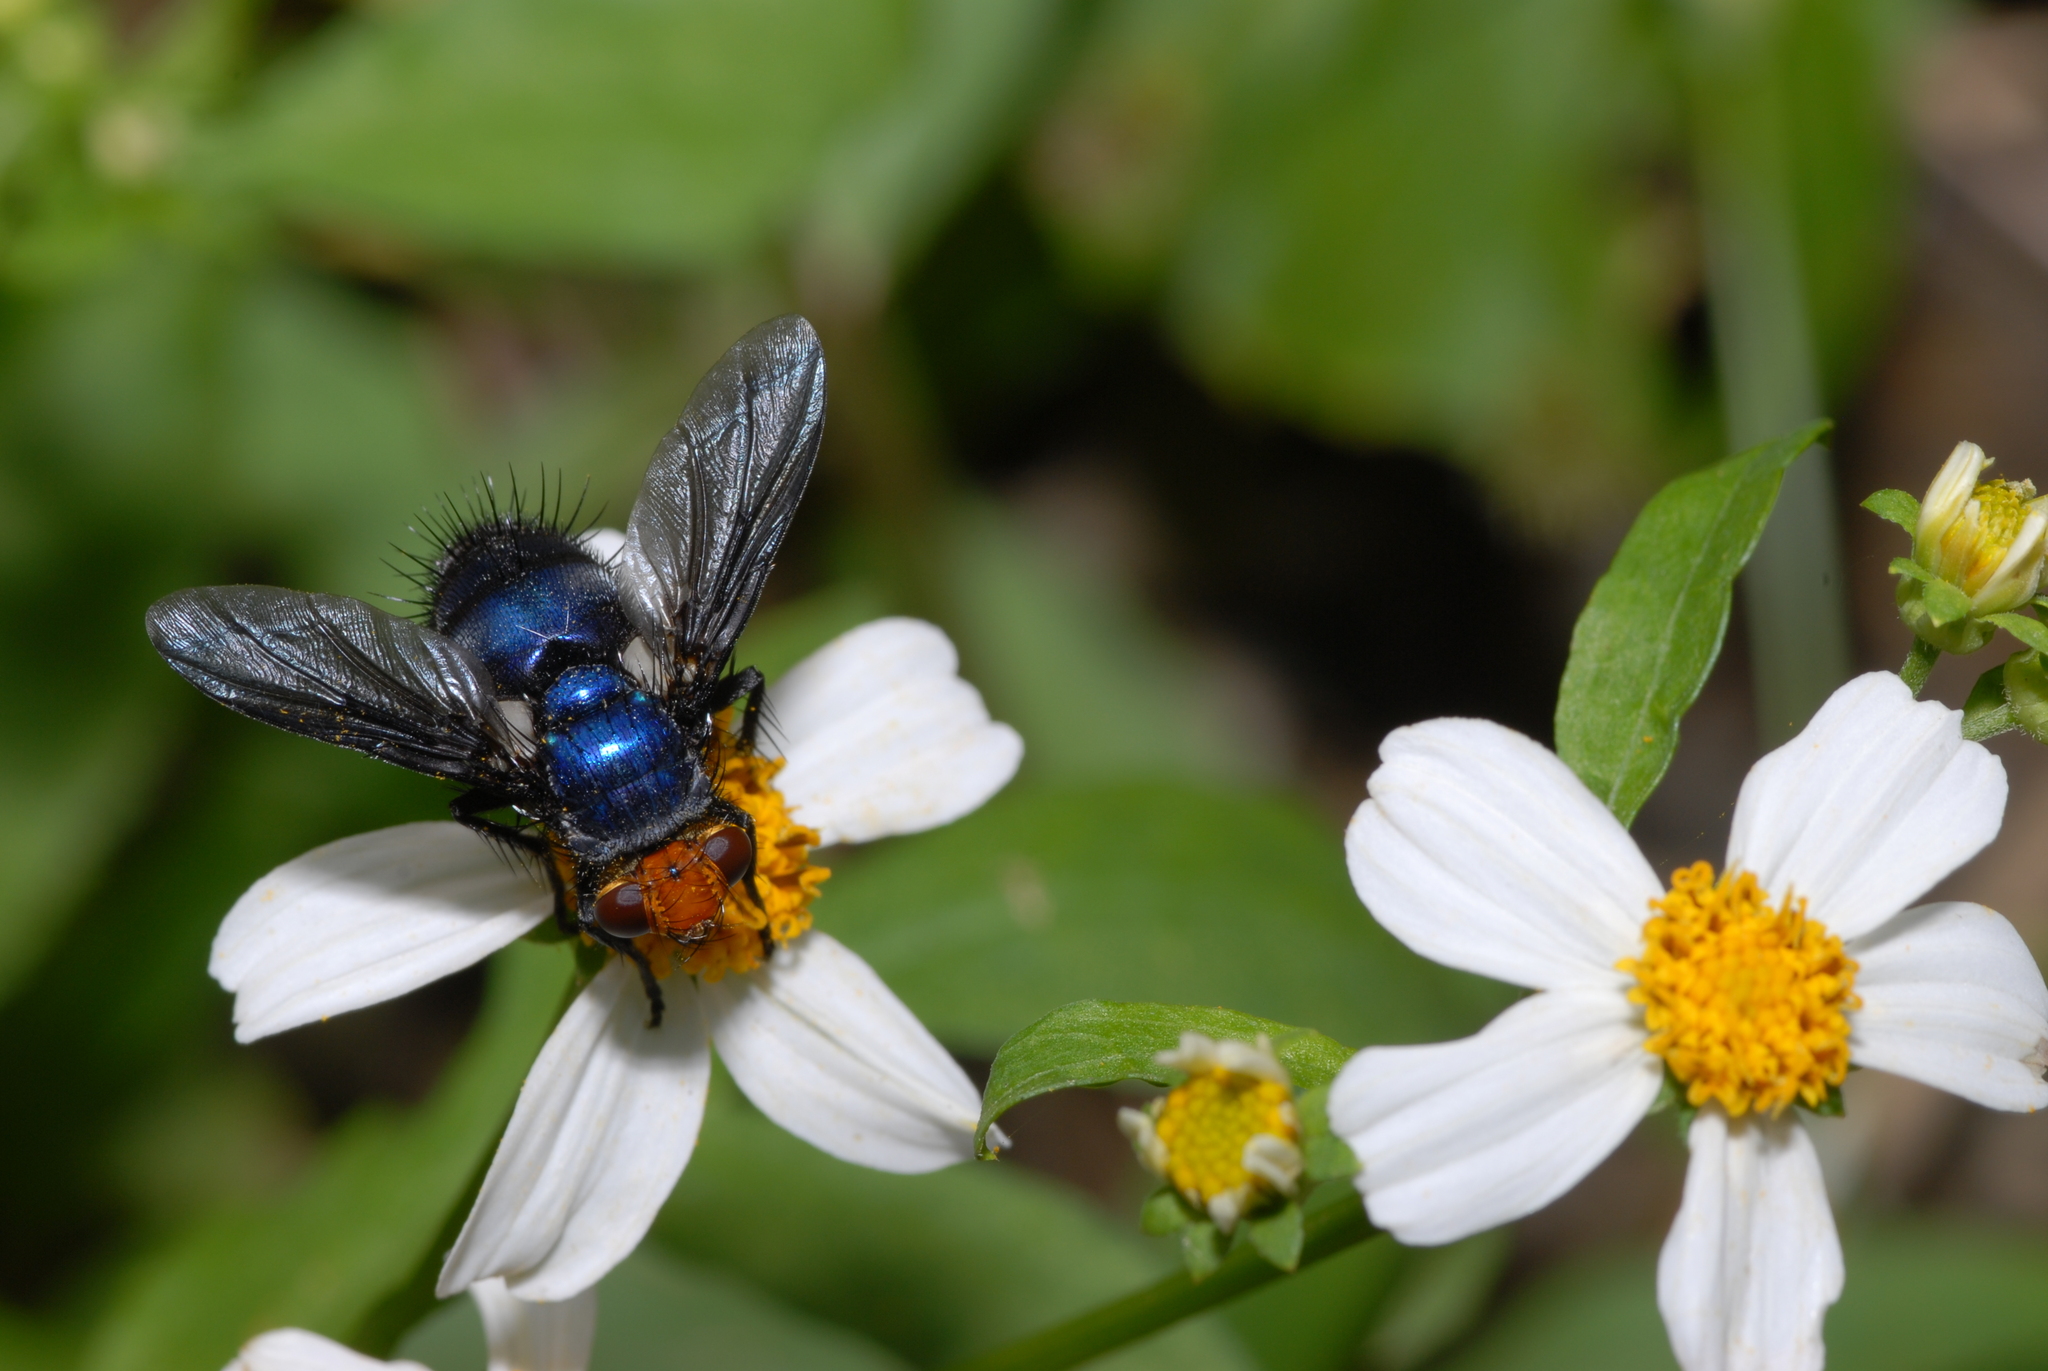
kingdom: Animalia
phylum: Arthropoda
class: Insecta
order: Diptera
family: Calliphoridae
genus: Silbomyia
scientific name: Silbomyia cyanea
